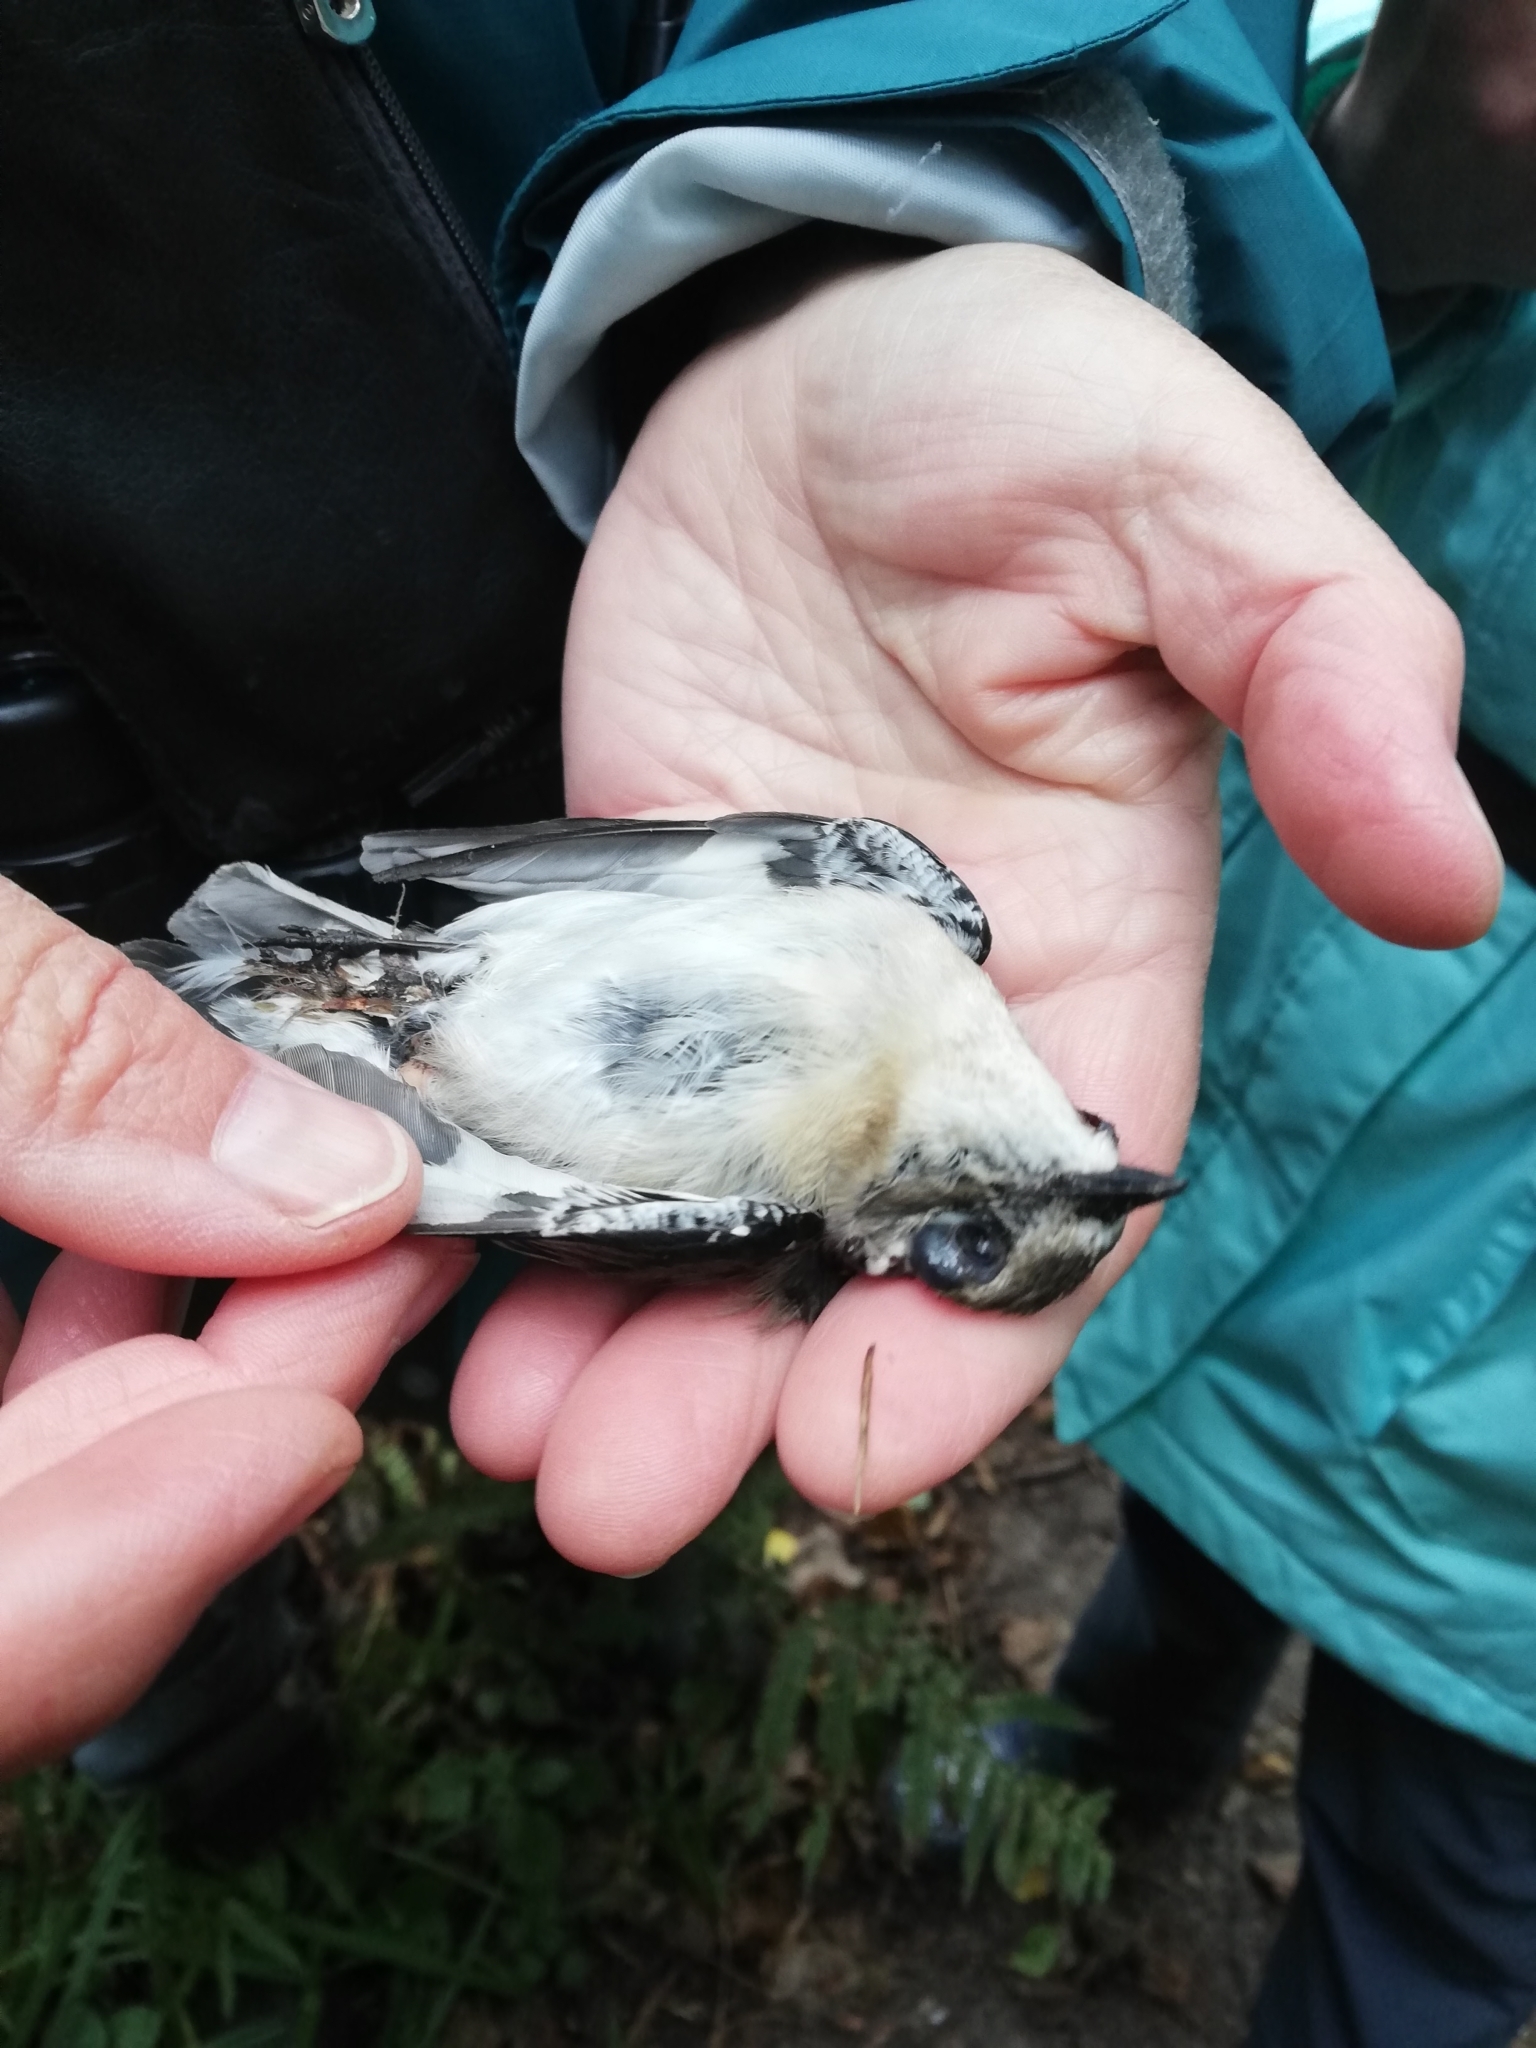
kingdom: Animalia
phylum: Chordata
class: Aves
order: Passeriformes
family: Muscicapidae
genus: Ficedula
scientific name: Ficedula hypoleuca
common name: European pied flycatcher
